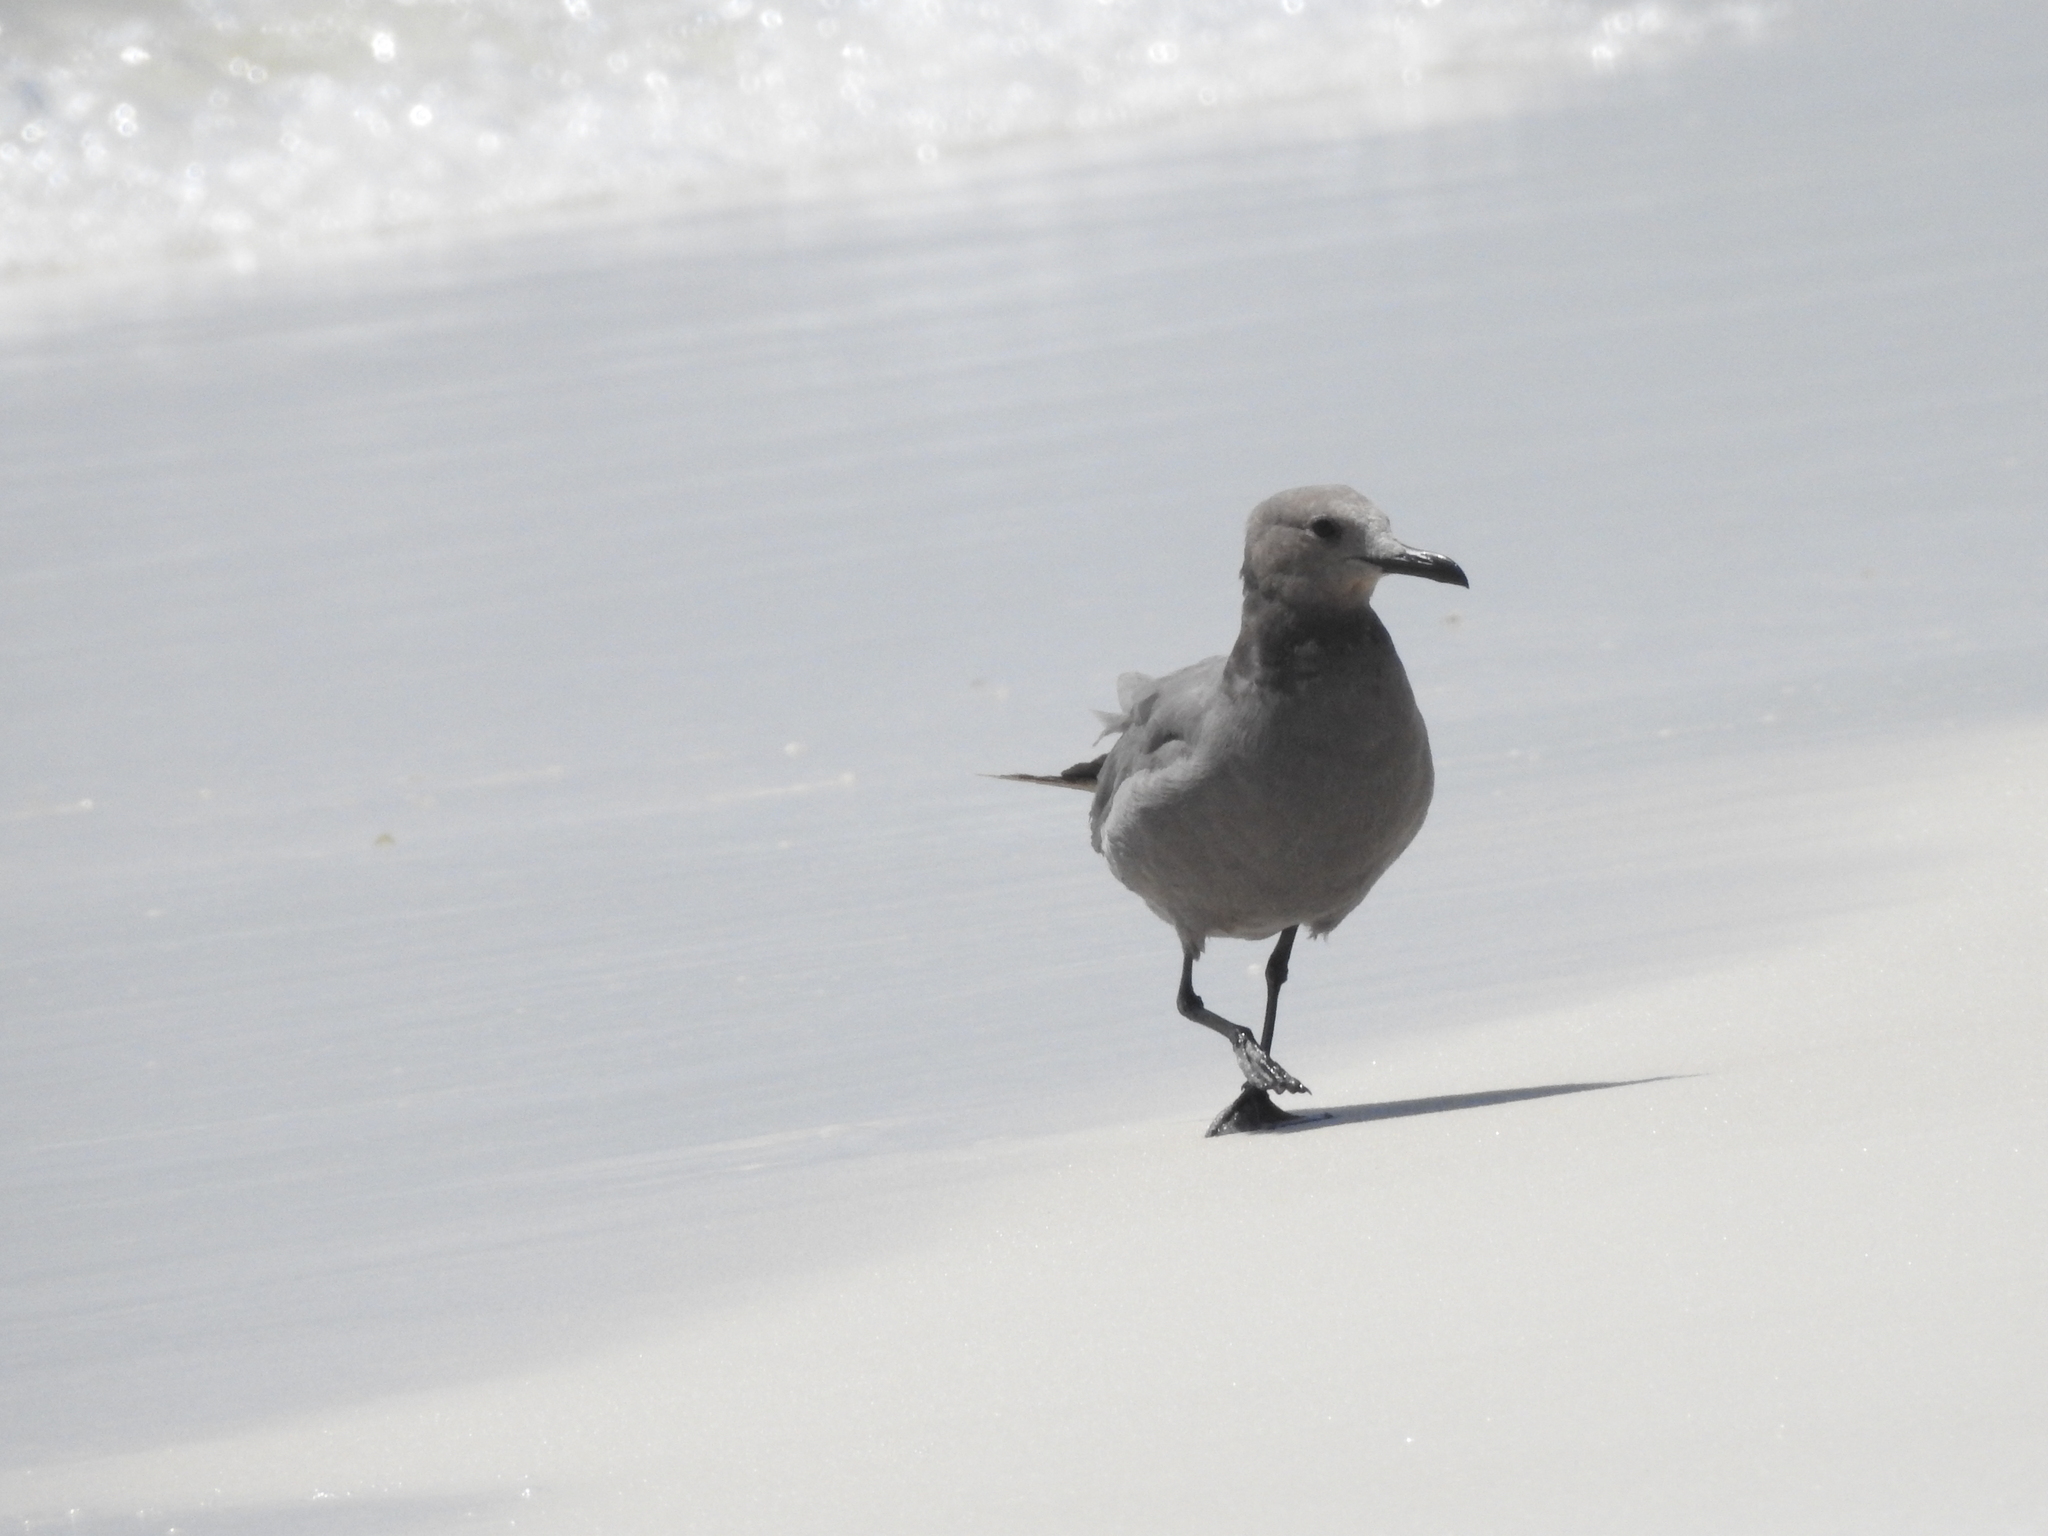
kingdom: Animalia
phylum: Chordata
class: Aves
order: Charadriiformes
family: Laridae
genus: Leucophaeus
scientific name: Leucophaeus modestus
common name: Gray gull
